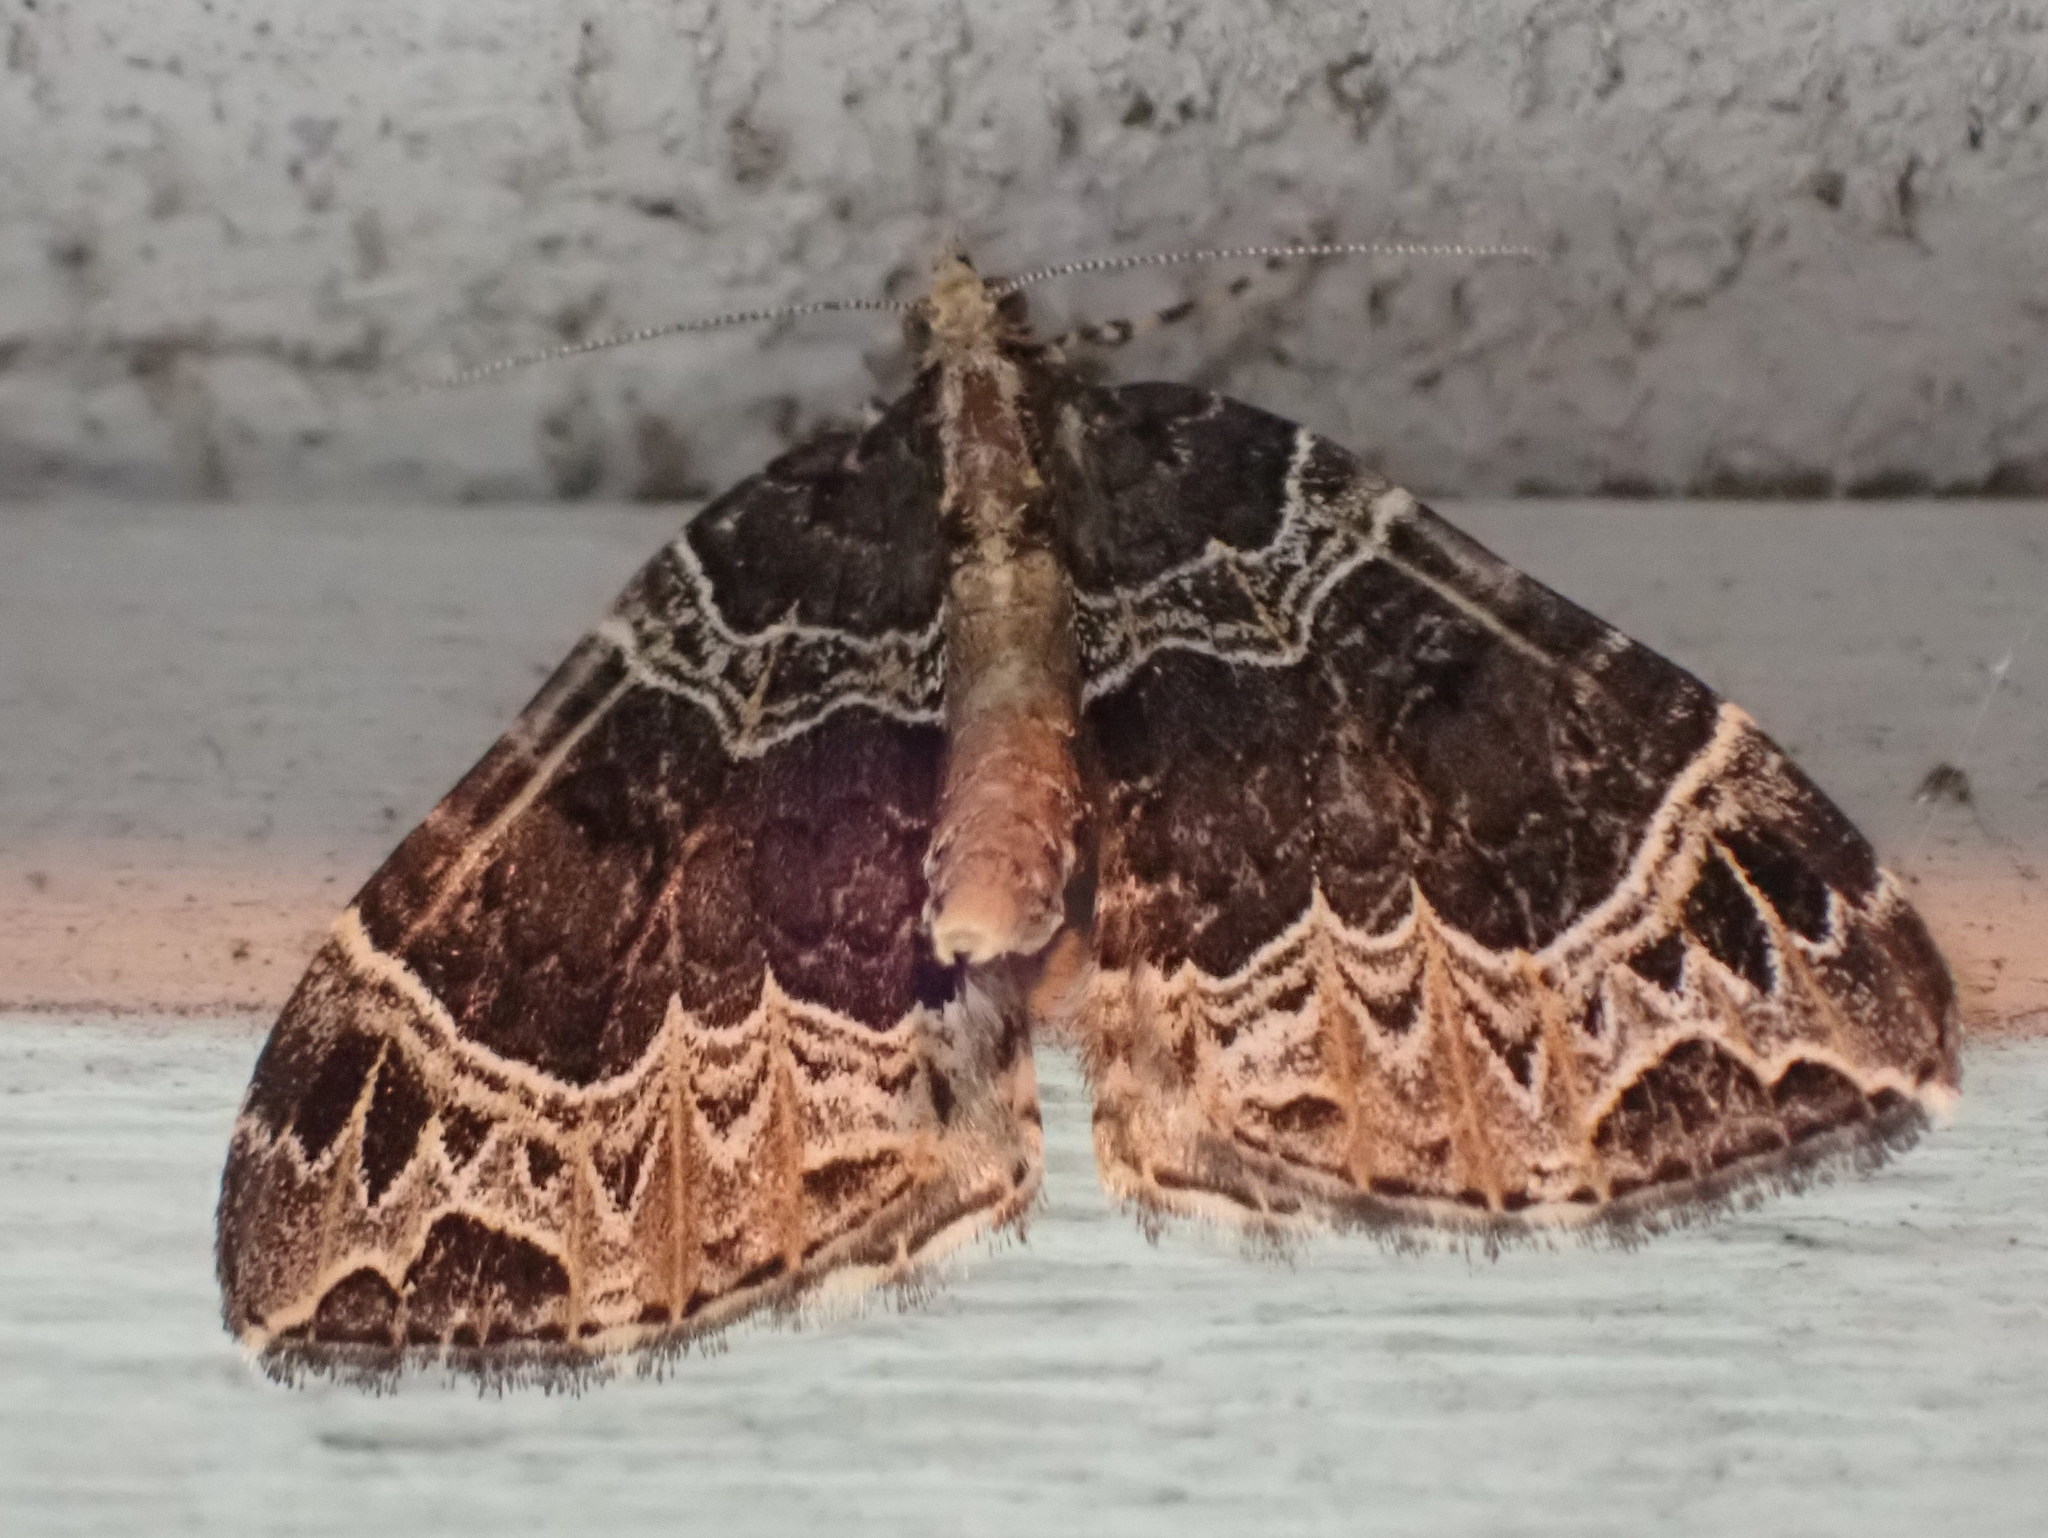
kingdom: Animalia
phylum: Arthropoda
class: Insecta
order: Lepidoptera
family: Geometridae
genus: Ecliptopera
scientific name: Ecliptopera silaceata
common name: Small phoenix
